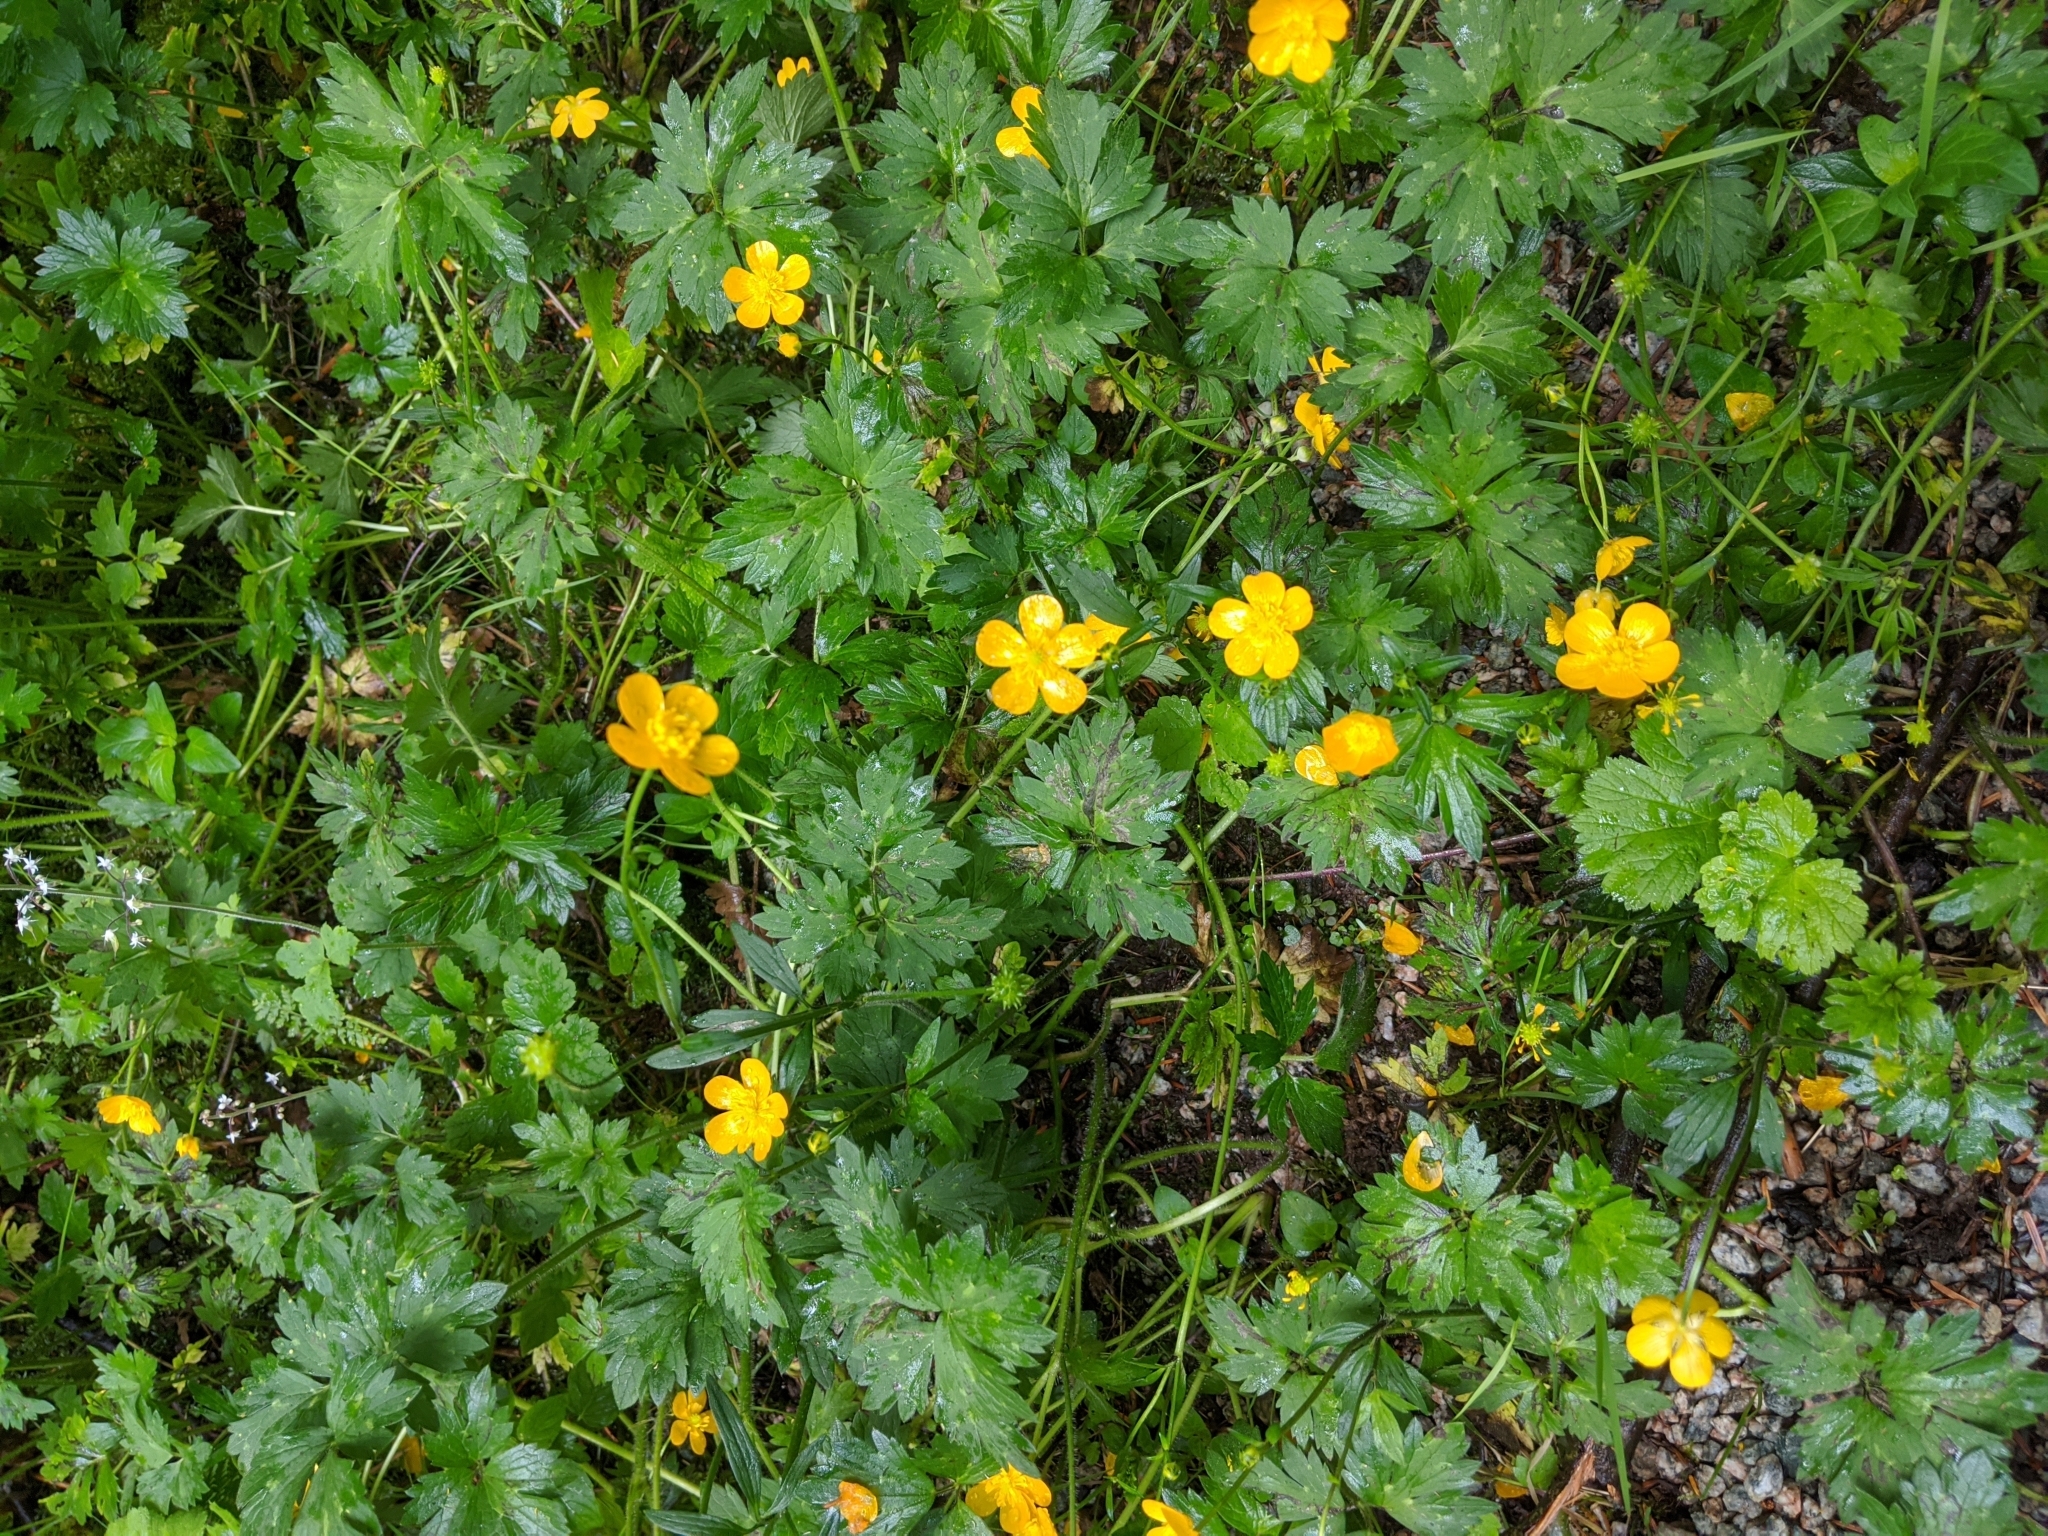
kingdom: Plantae
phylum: Tracheophyta
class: Magnoliopsida
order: Ranunculales
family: Ranunculaceae
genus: Ranunculus
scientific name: Ranunculus repens
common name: Creeping buttercup
